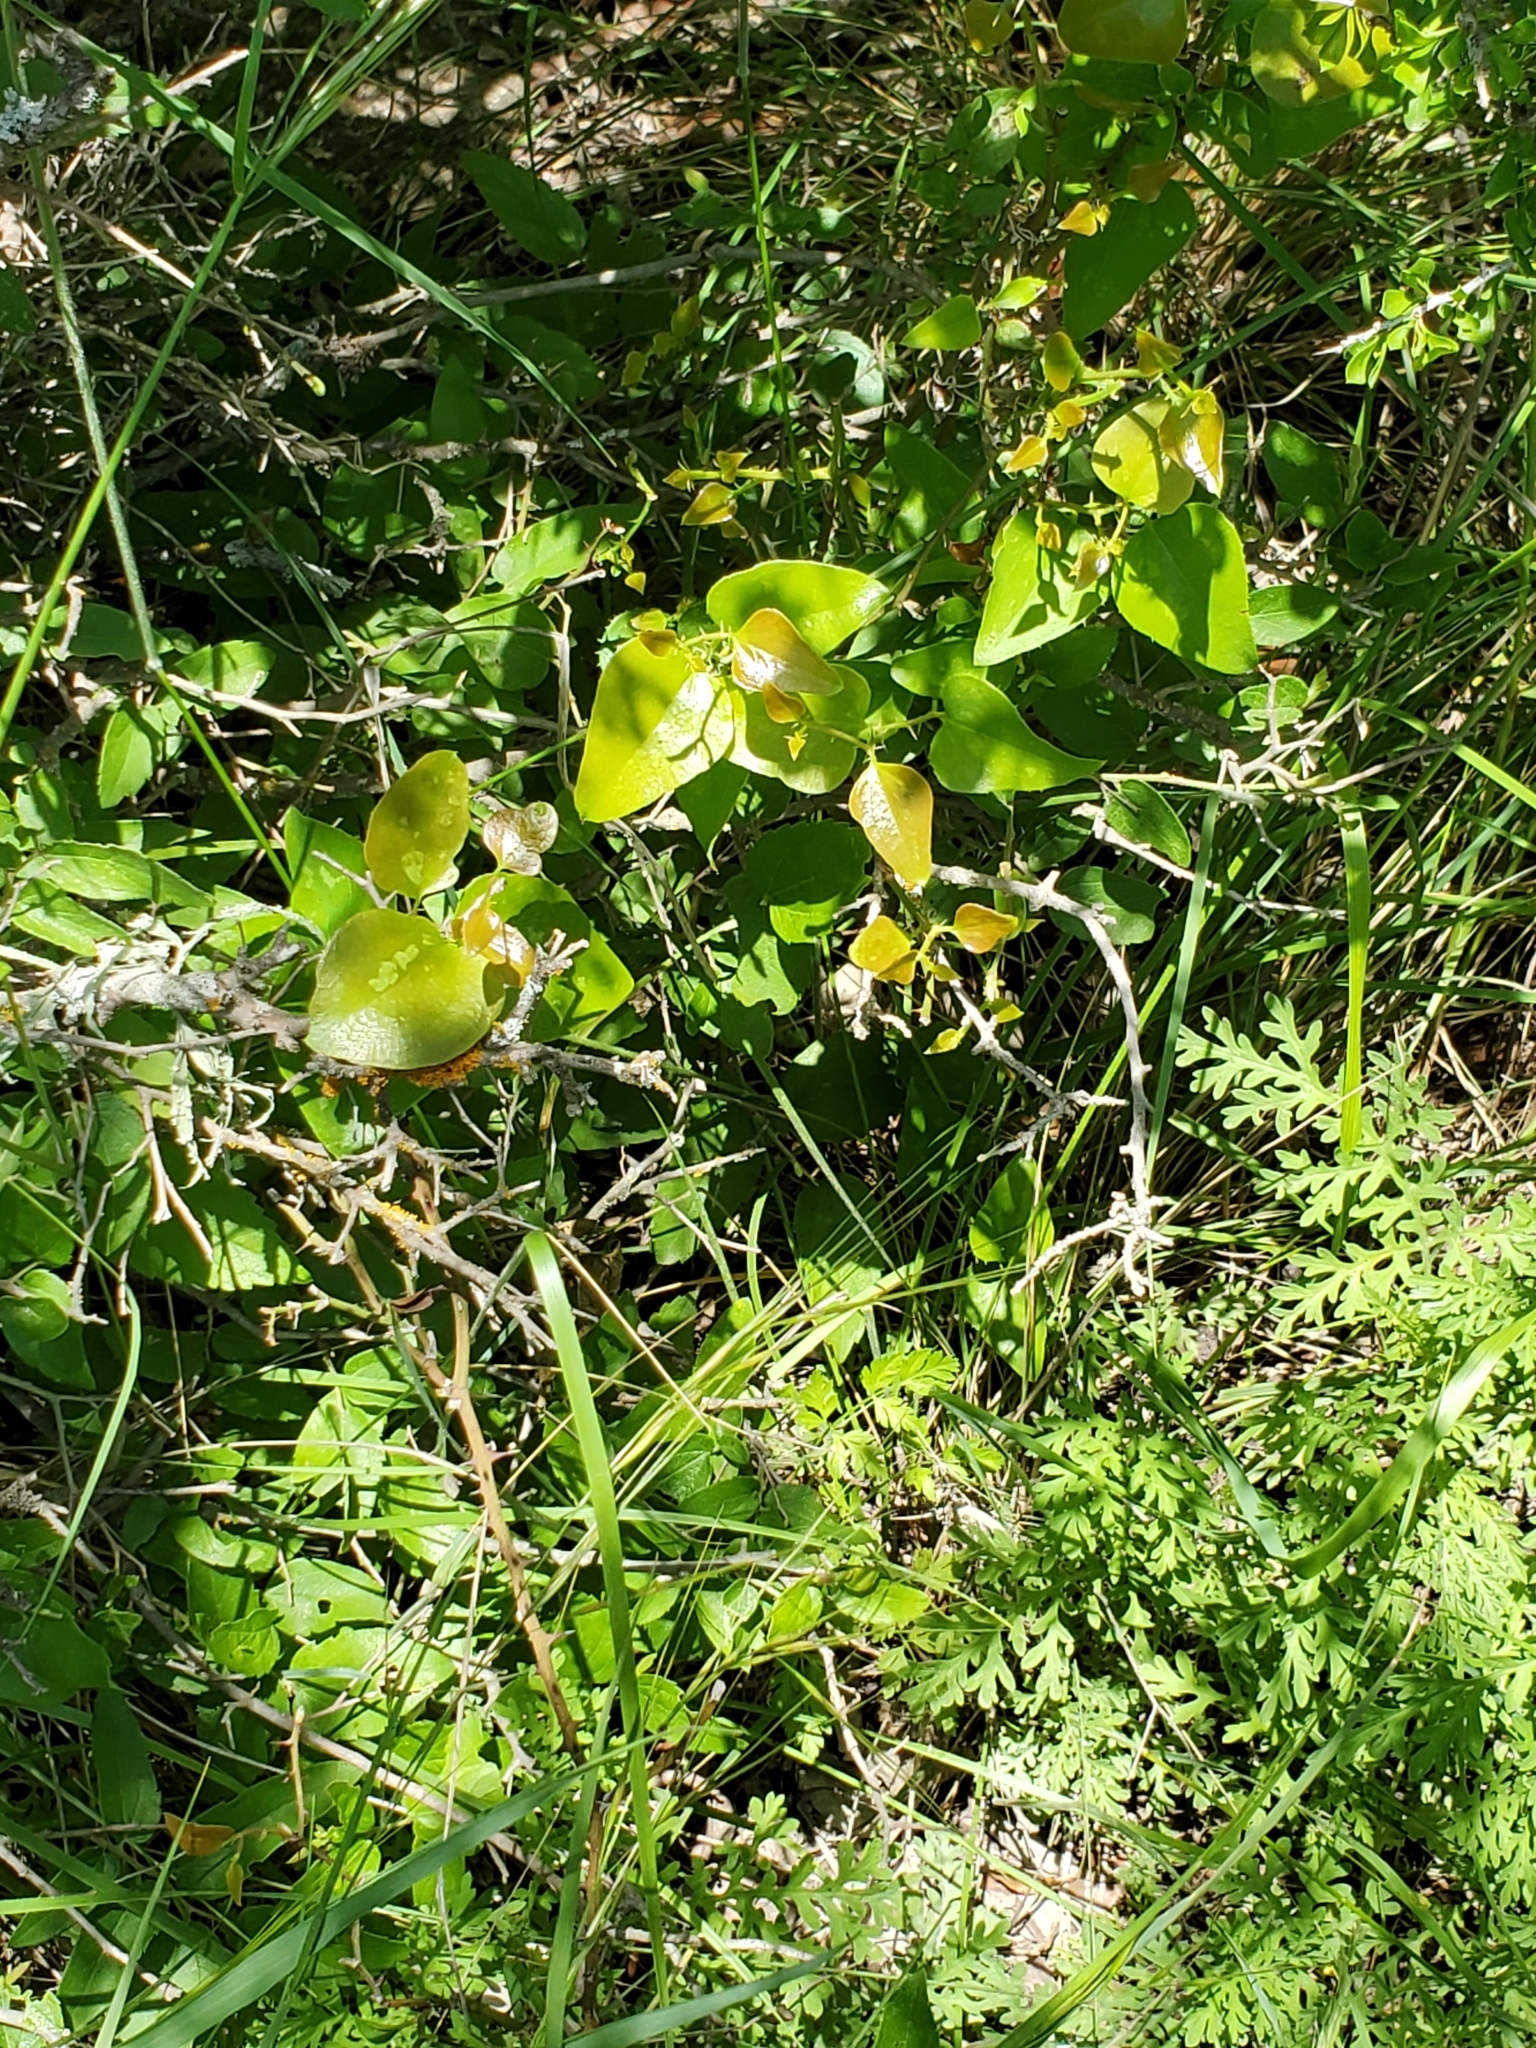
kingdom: Plantae
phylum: Tracheophyta
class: Liliopsida
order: Liliales
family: Smilacaceae
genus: Smilax
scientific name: Smilax bona-nox
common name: Catbrier
